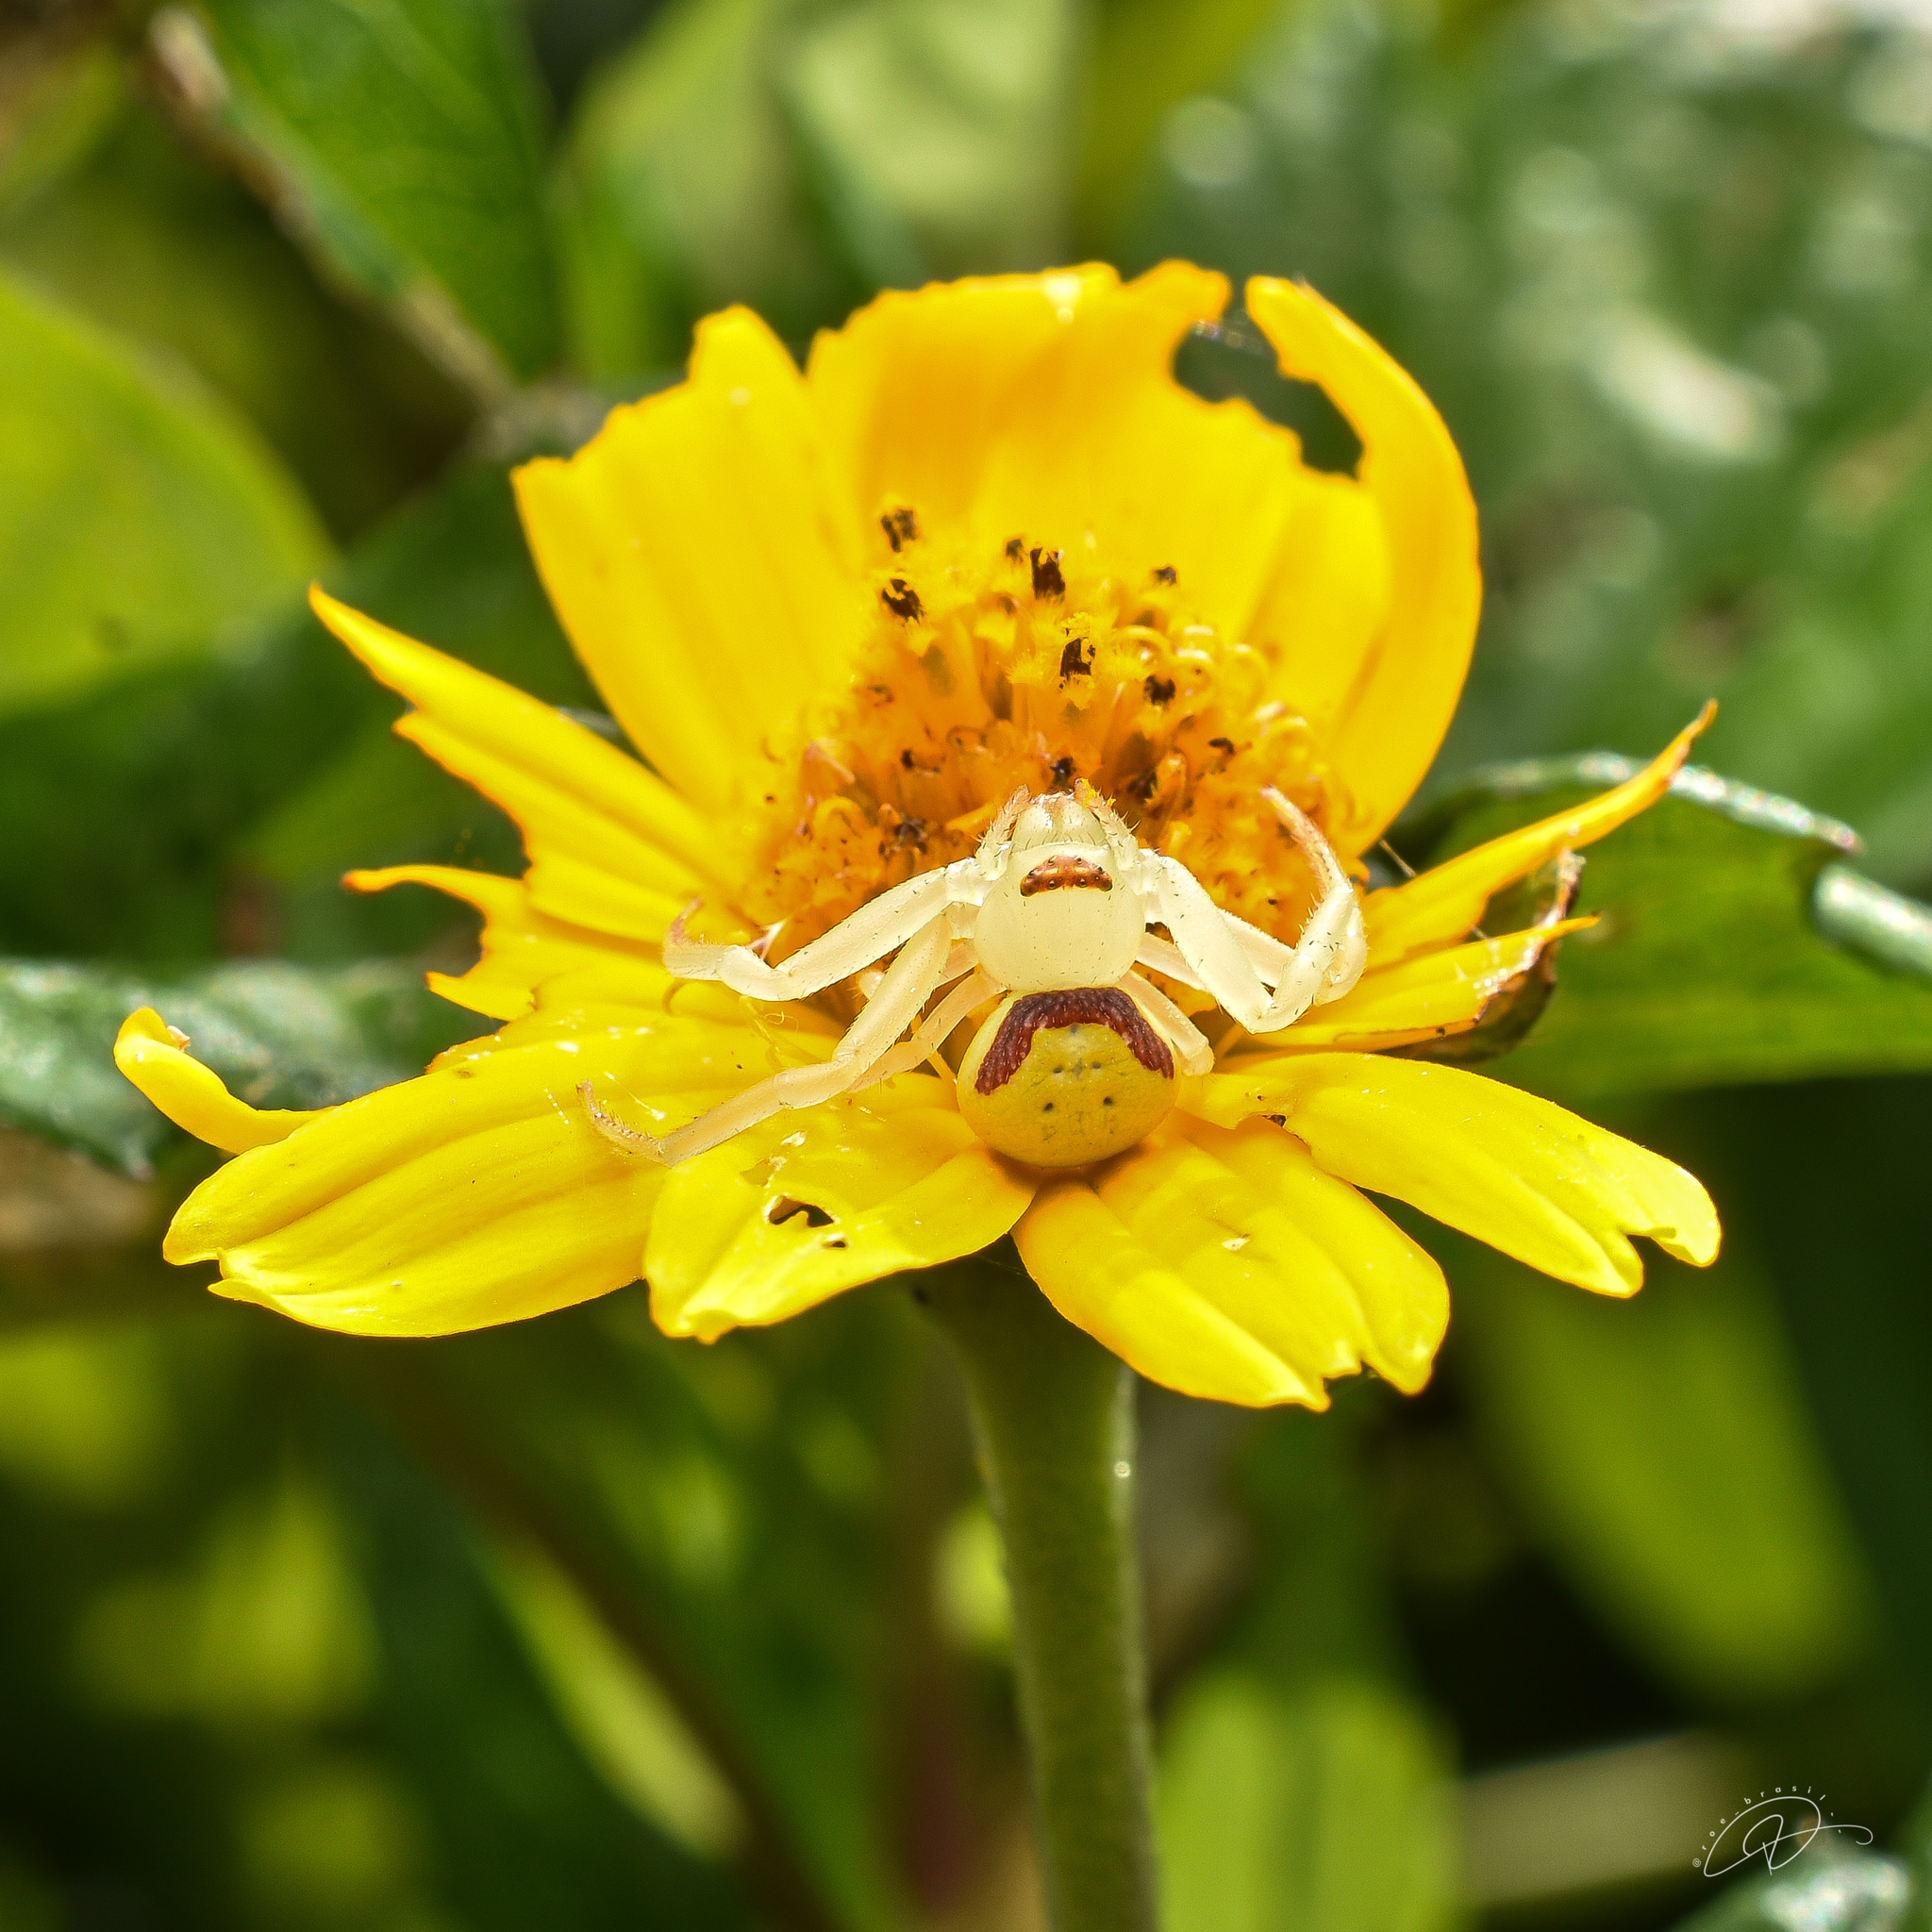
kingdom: Animalia
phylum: Arthropoda
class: Arachnida
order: Araneae
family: Thomisidae
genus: Misumenops
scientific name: Misumenops callinurus
